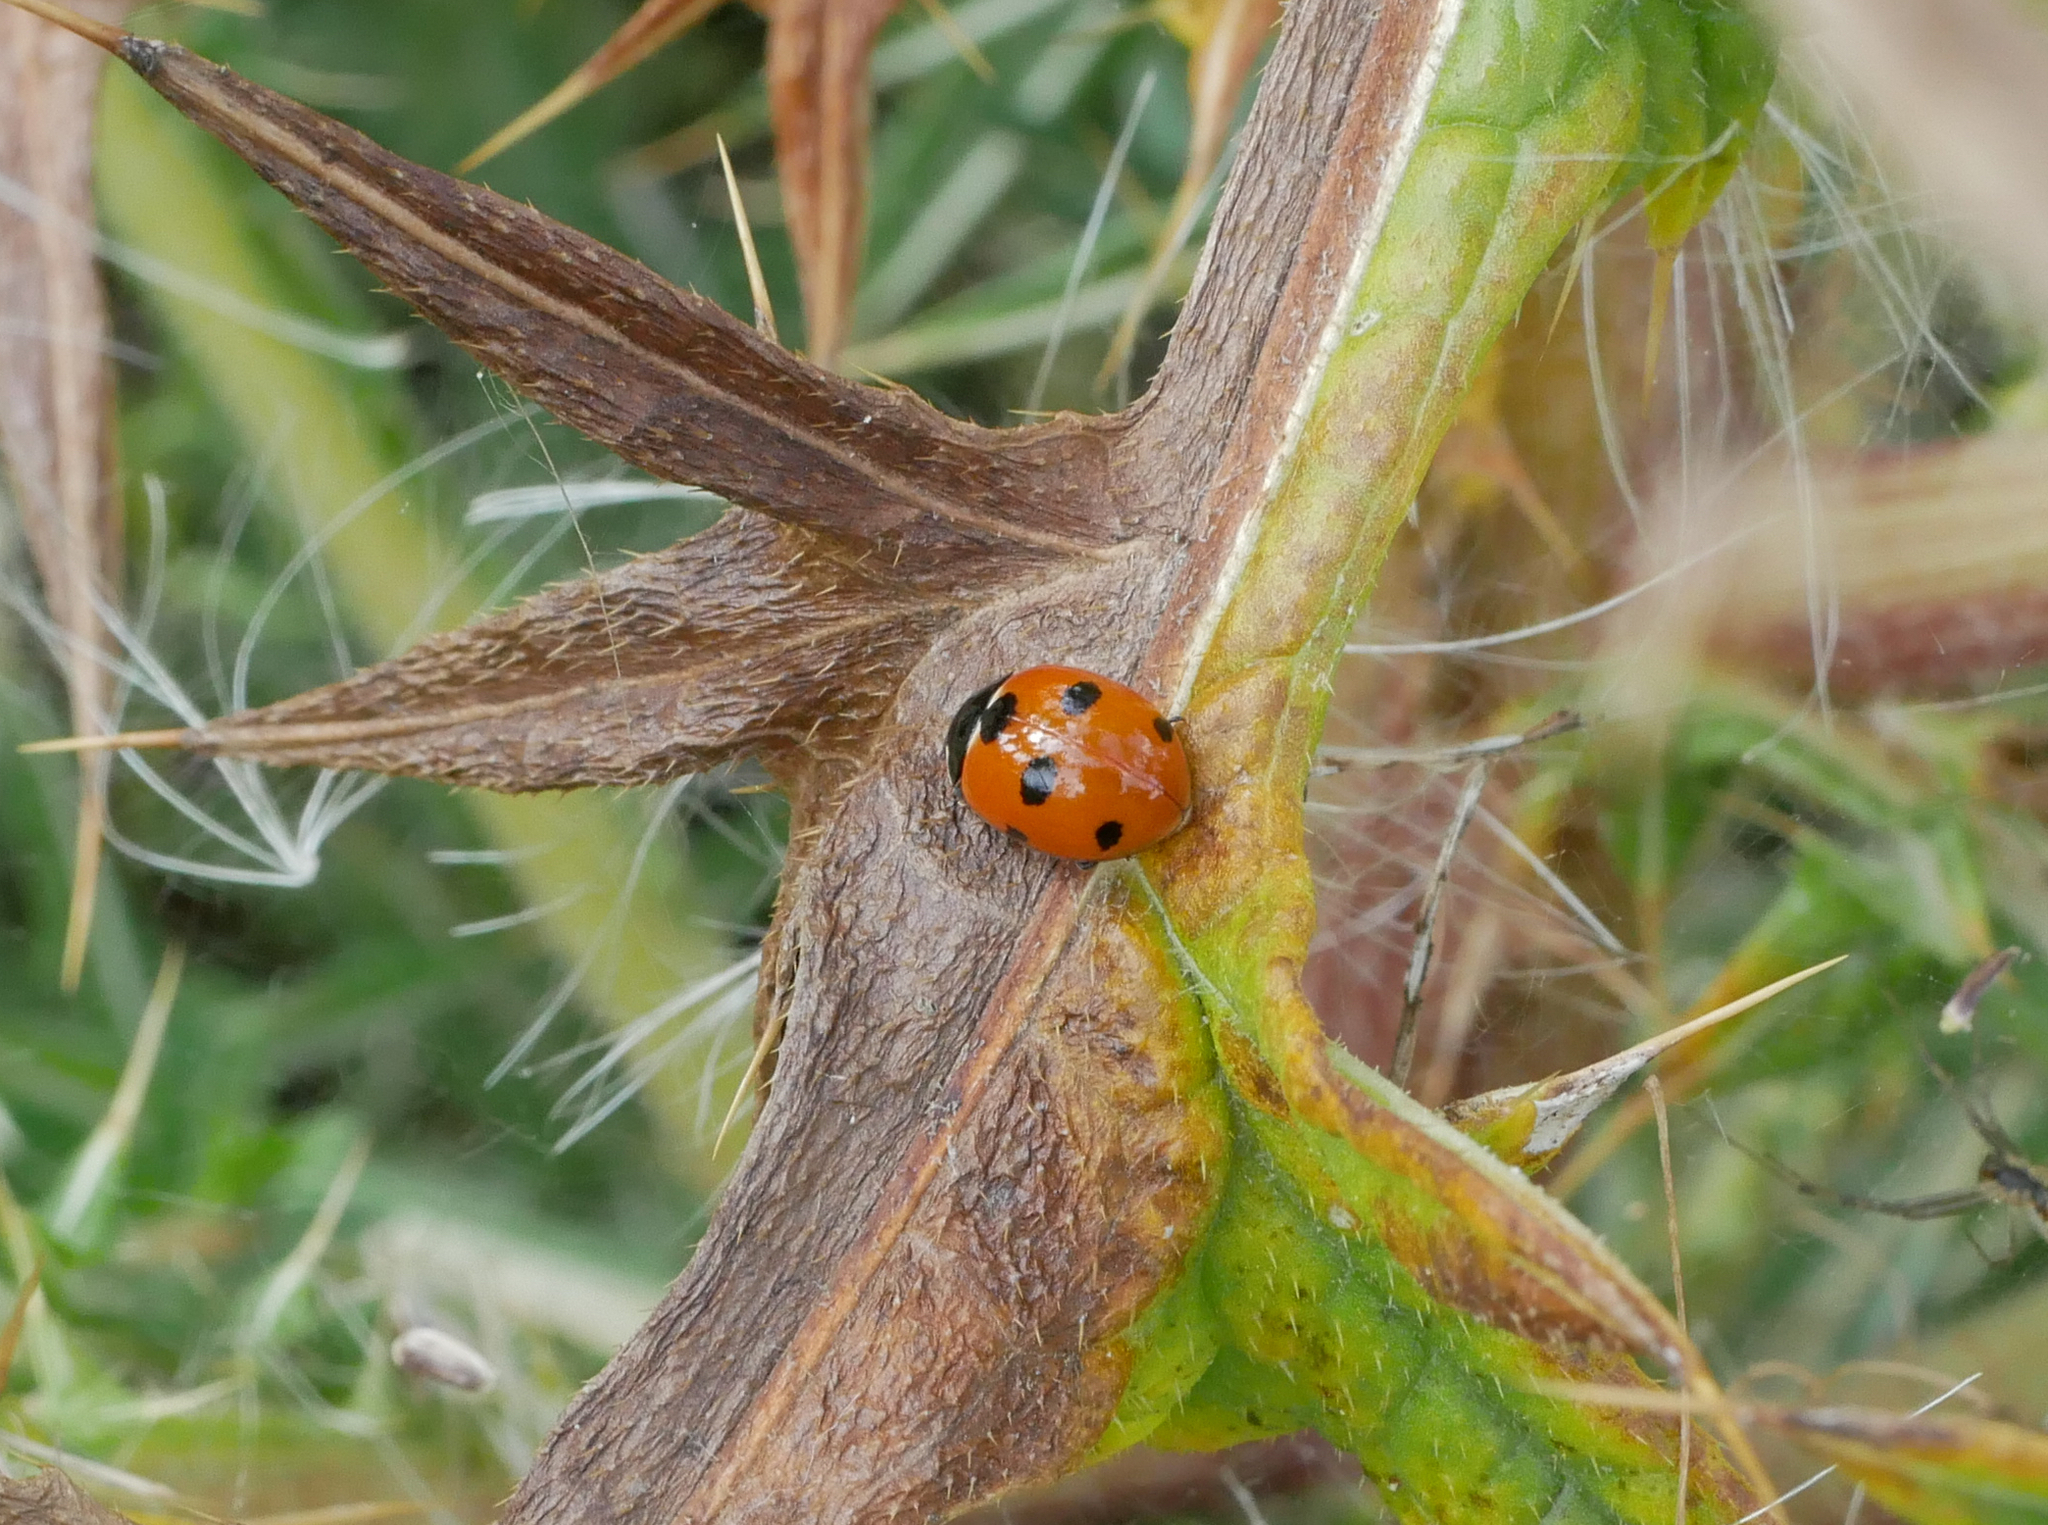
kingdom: Animalia
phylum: Arthropoda
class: Insecta
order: Coleoptera
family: Coccinellidae
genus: Coccinella
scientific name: Coccinella septempunctata
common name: Sevenspotted lady beetle
